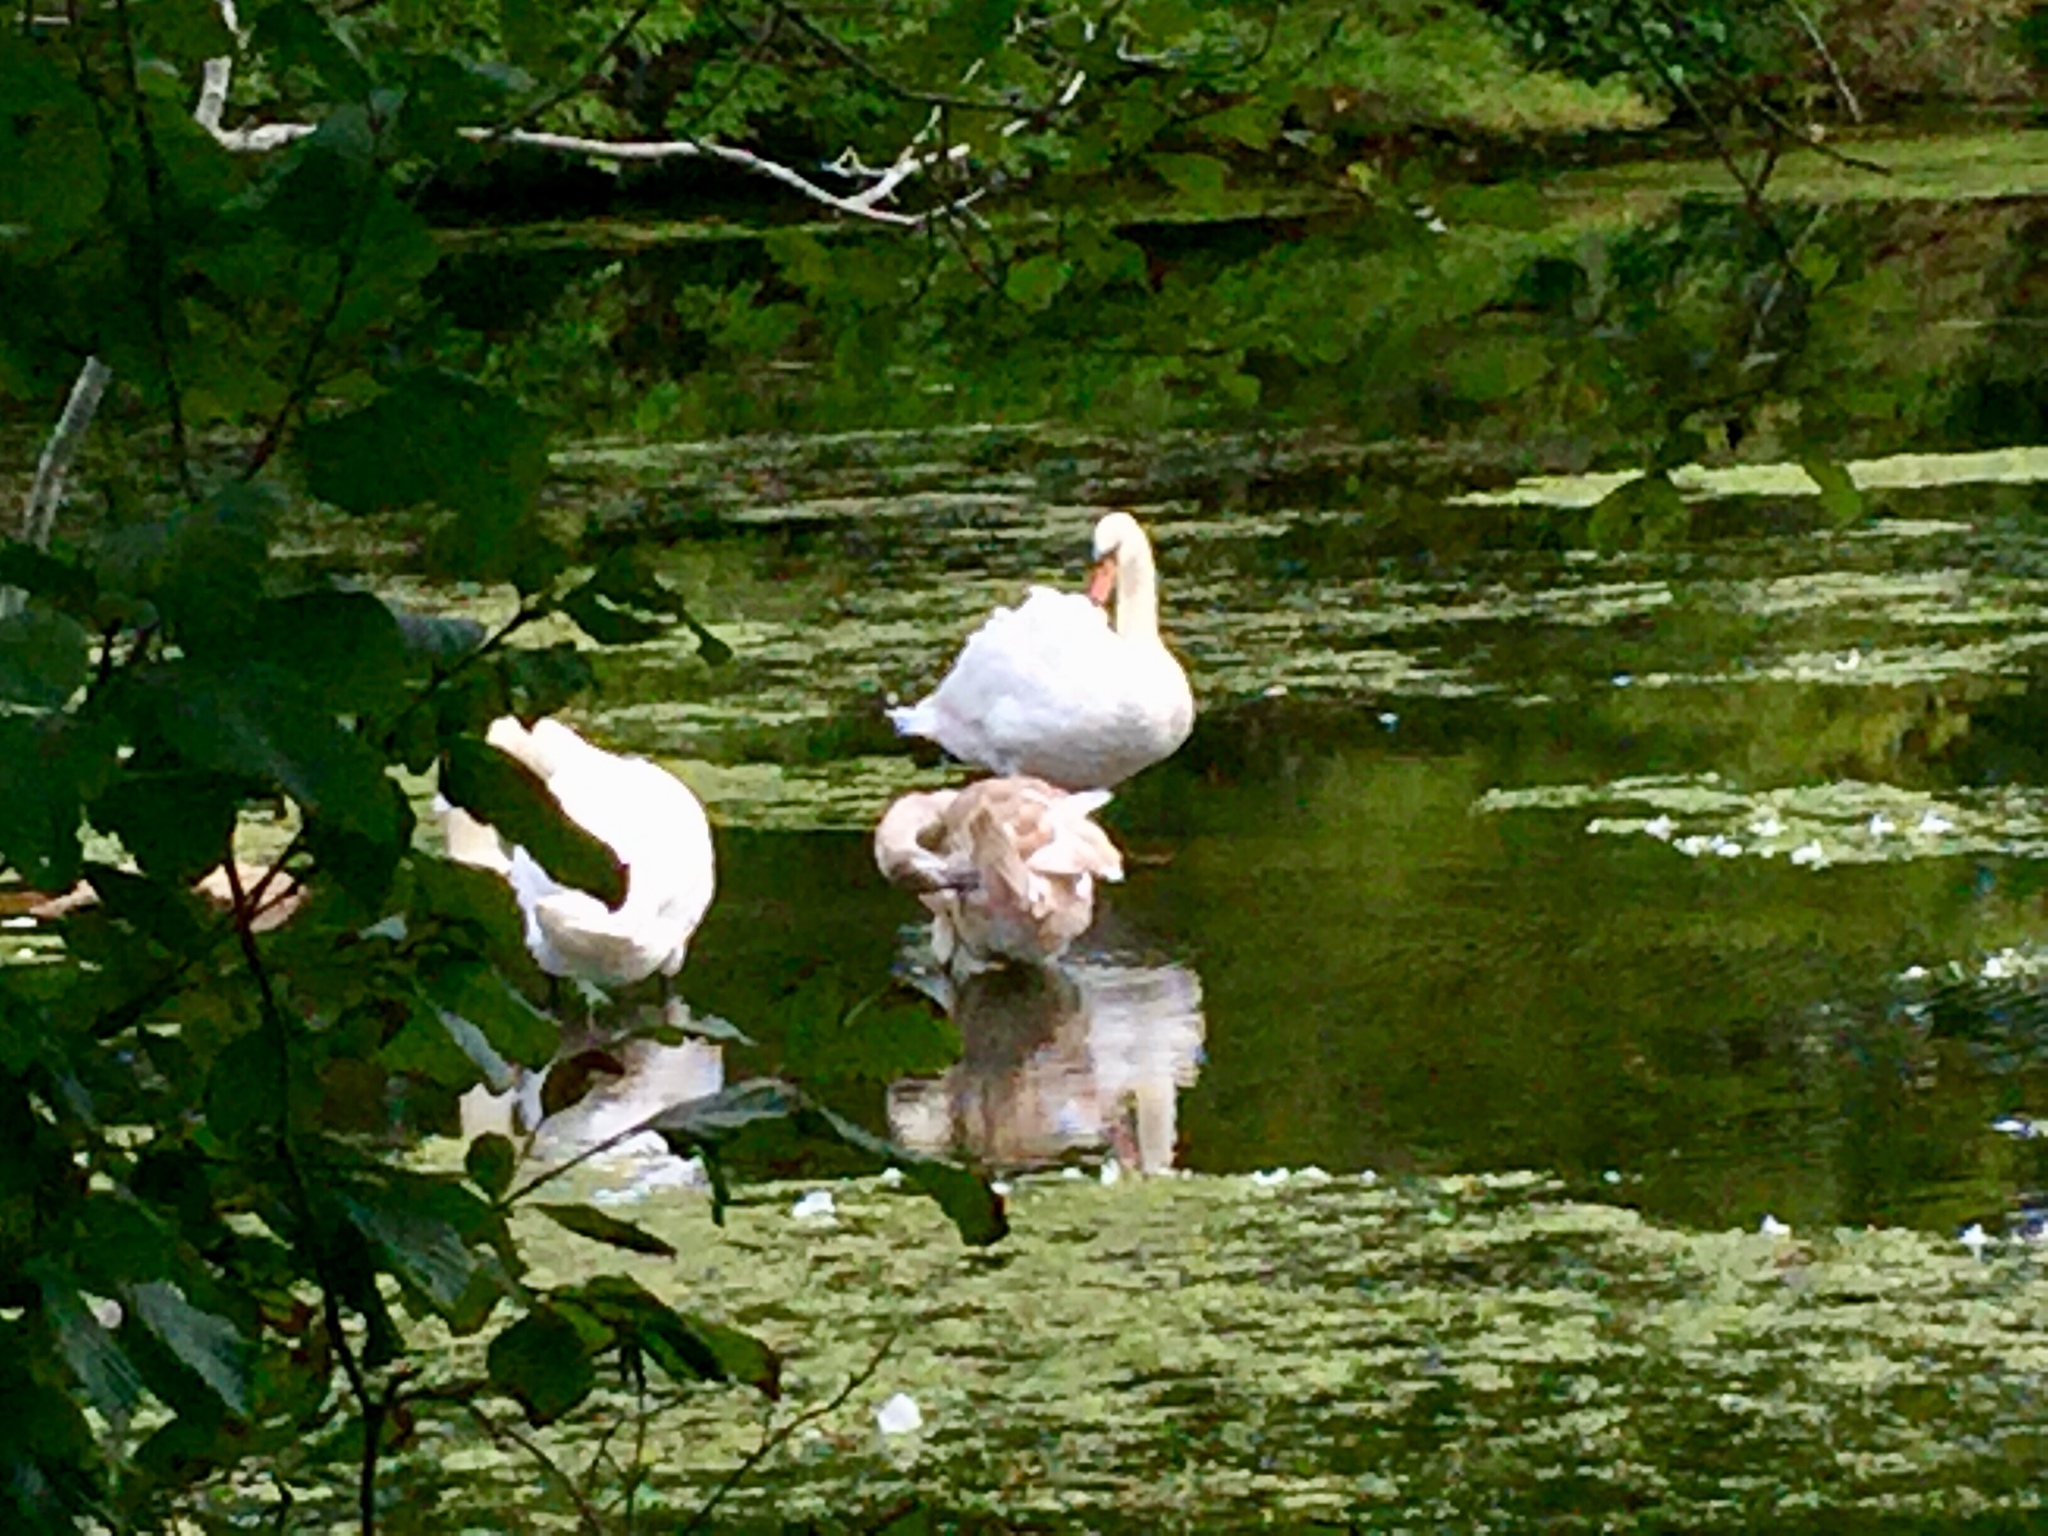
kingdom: Animalia
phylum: Chordata
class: Aves
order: Anseriformes
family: Anatidae
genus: Cygnus
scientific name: Cygnus olor
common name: Mute swan
